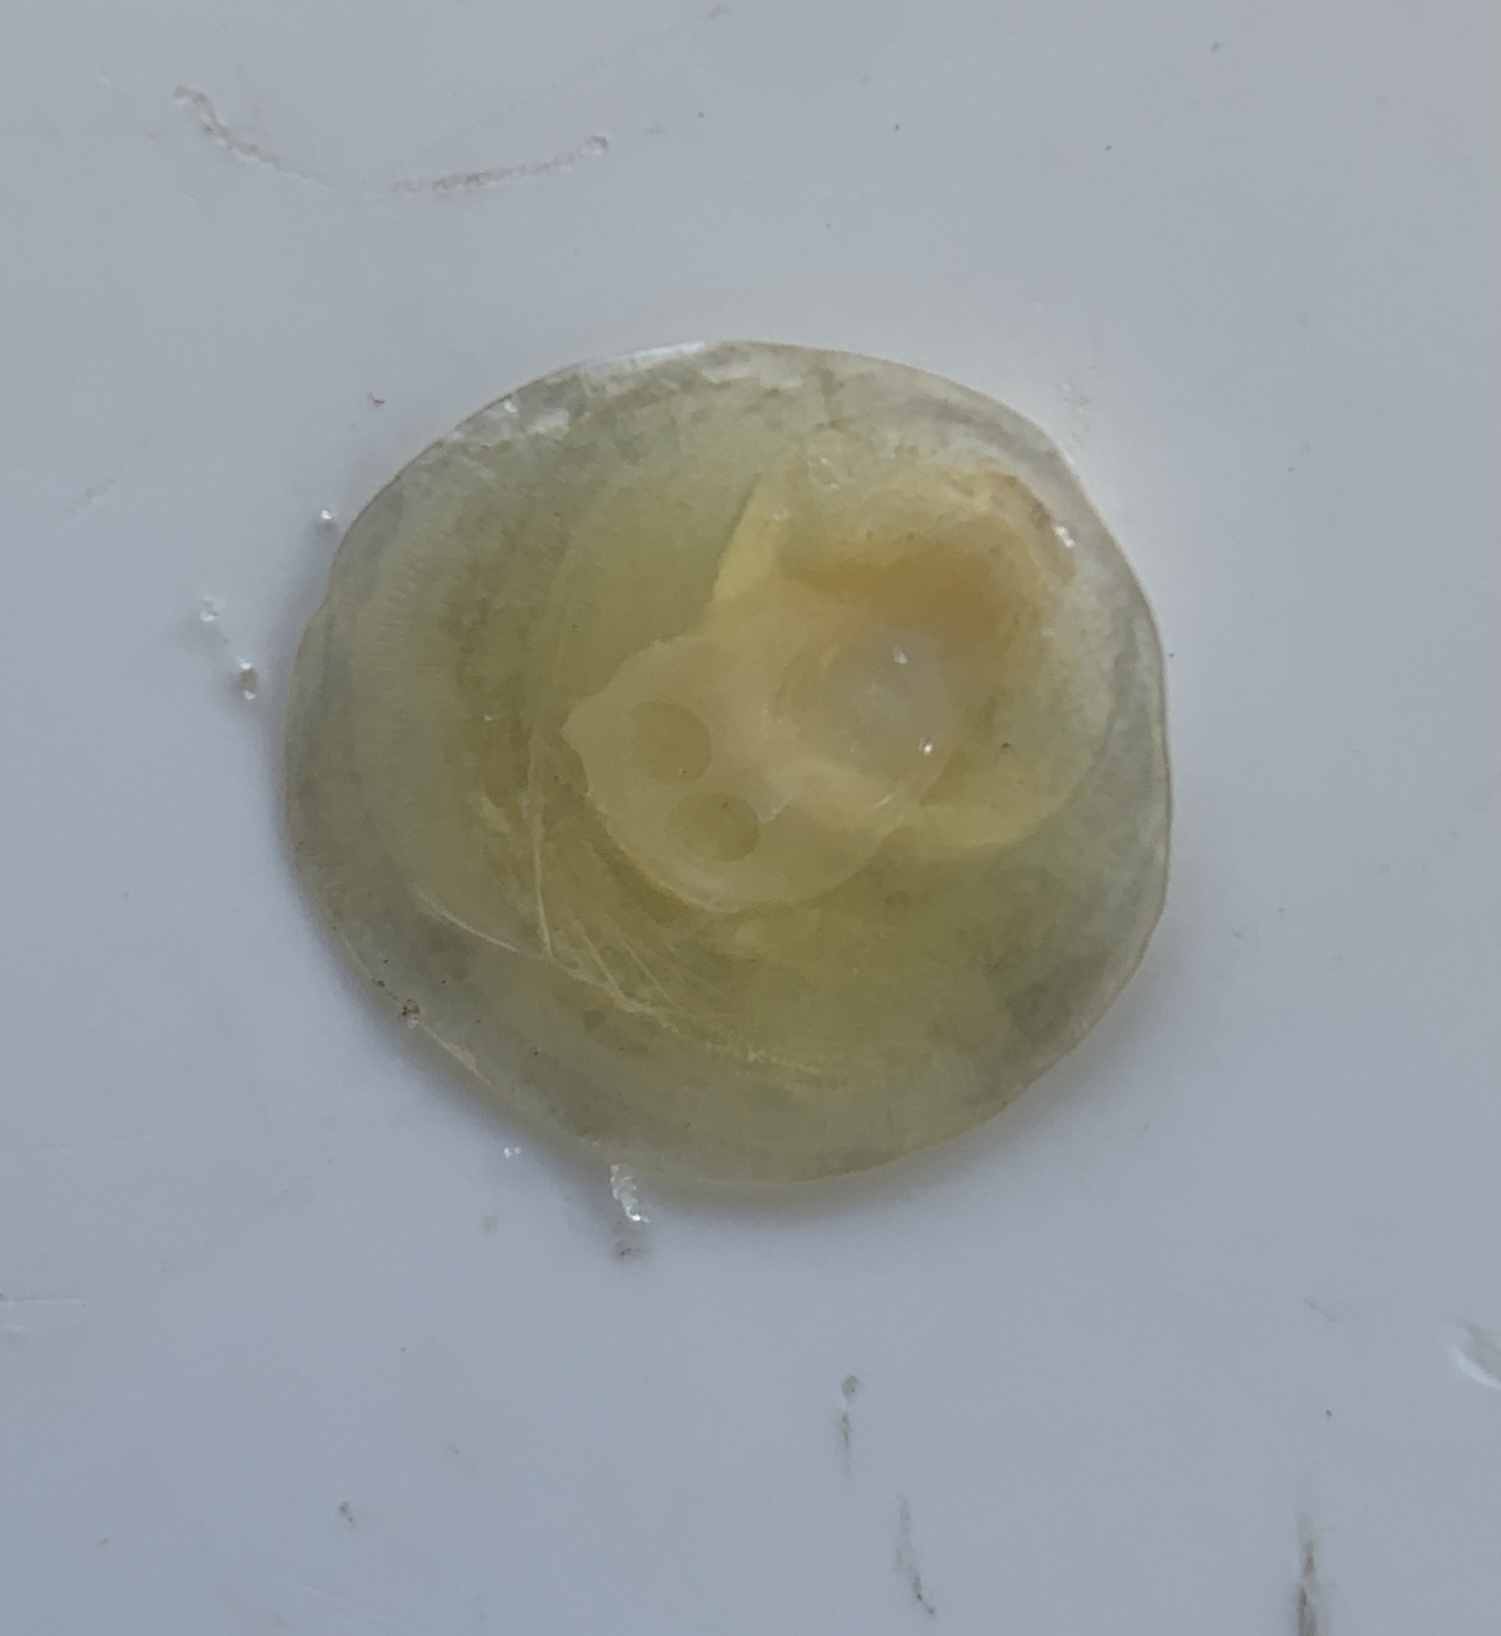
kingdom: Animalia
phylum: Mollusca
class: Bivalvia
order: Pectinida
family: Anomiidae
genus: Anomia
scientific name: Anomia simplex
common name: Common jingle shell
